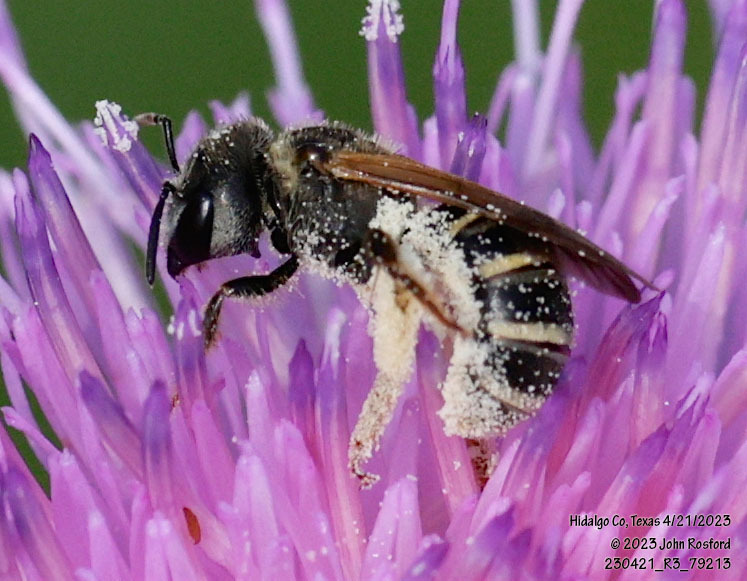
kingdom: Animalia
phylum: Arthropoda
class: Insecta
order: Hymenoptera
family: Halictidae
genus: Halictus
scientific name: Halictus ligatus
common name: Ligated furrow bee
